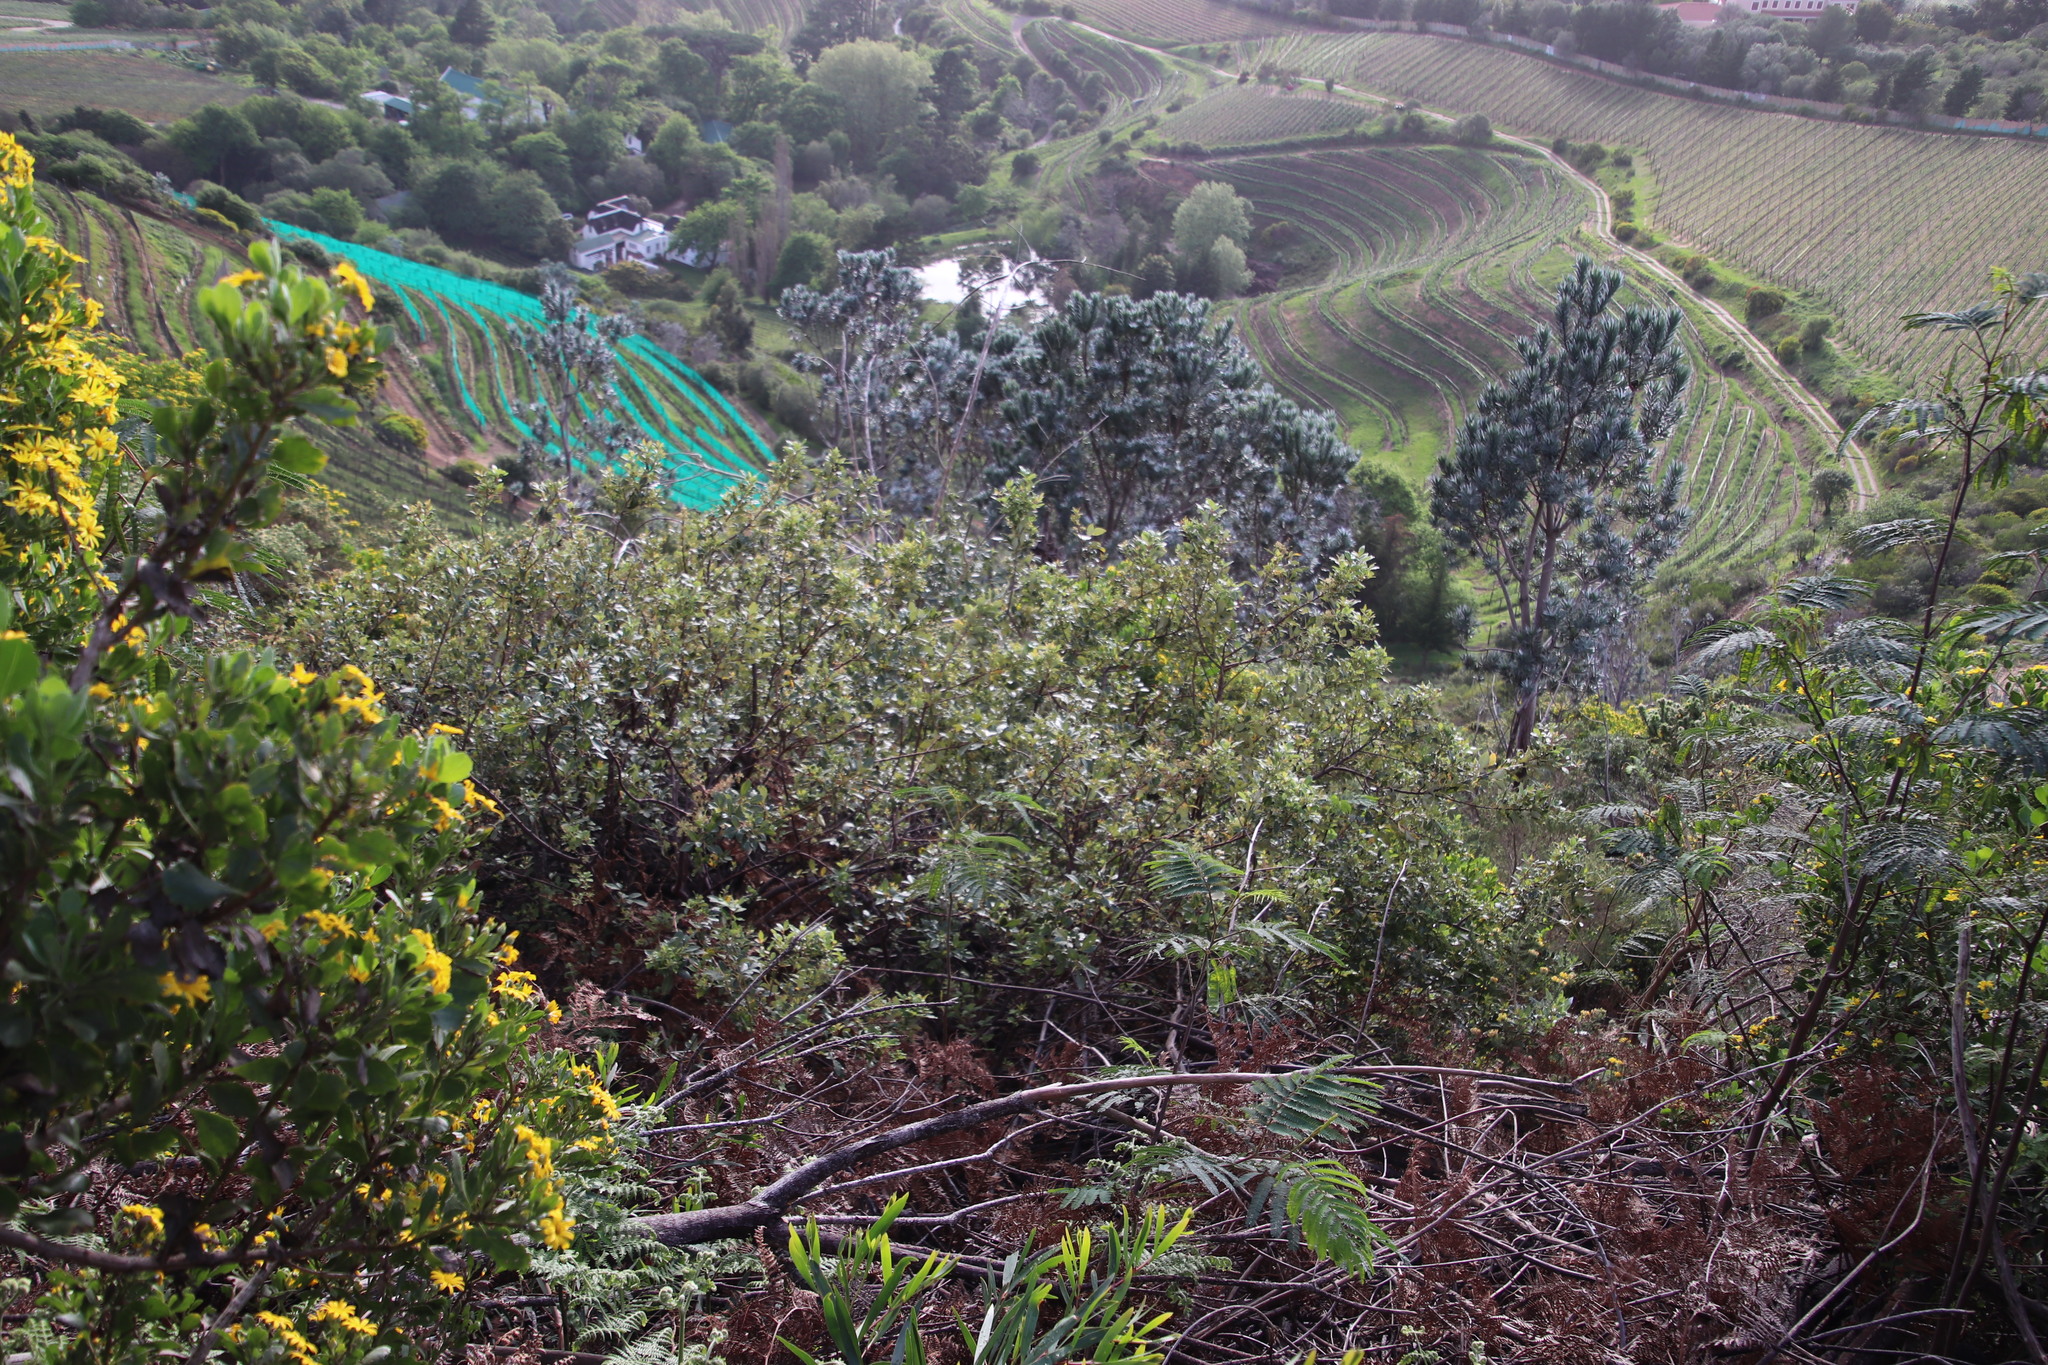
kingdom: Plantae
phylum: Tracheophyta
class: Magnoliopsida
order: Sapindales
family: Anacardiaceae
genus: Searsia
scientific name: Searsia tomentosa
